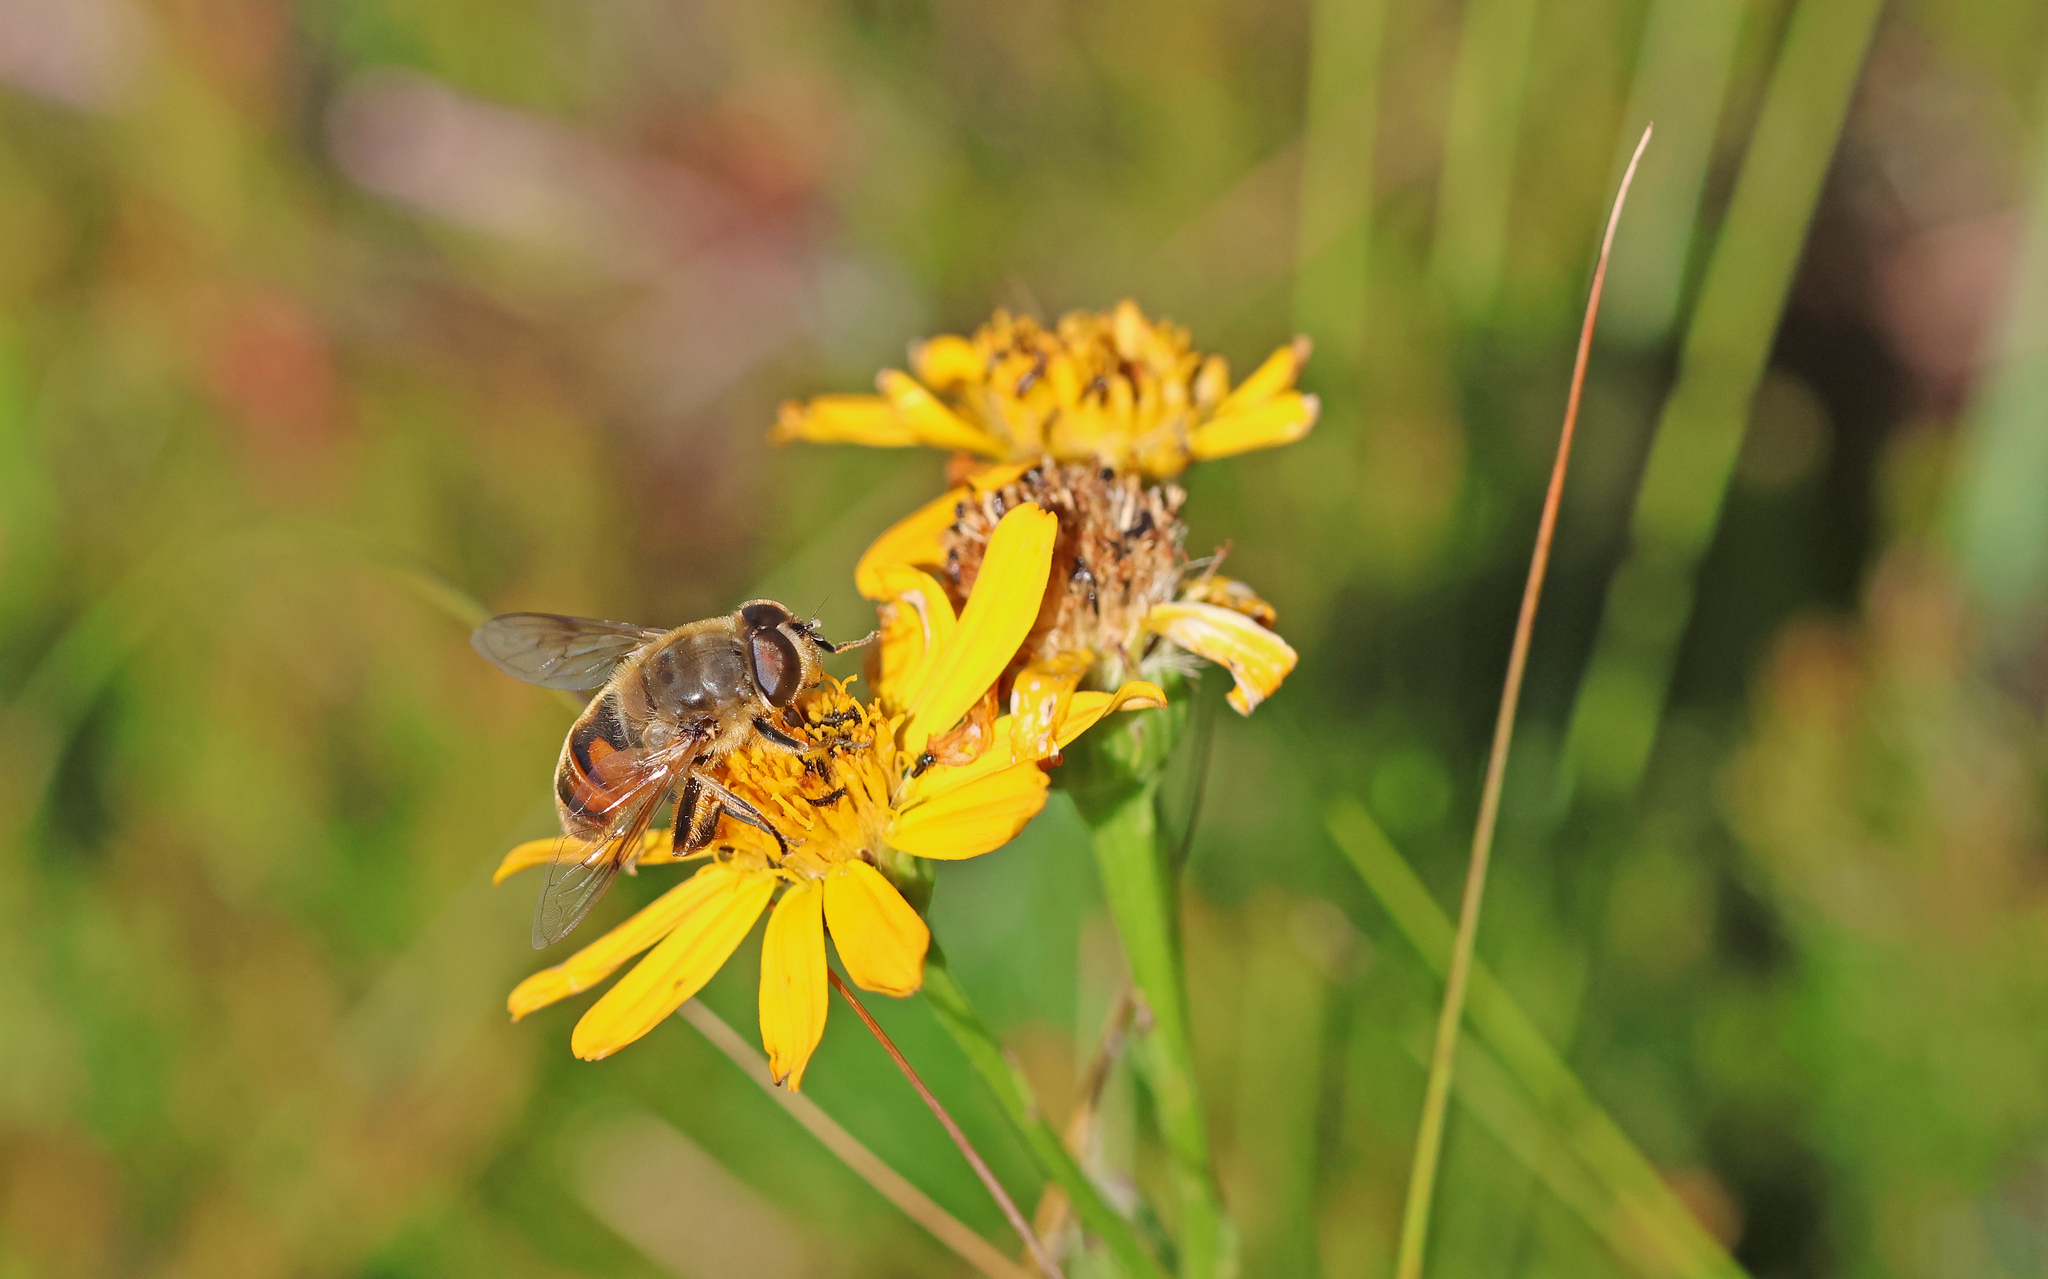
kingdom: Animalia
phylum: Arthropoda
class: Insecta
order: Diptera
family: Syrphidae
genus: Eristalis
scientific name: Eristalis tenax
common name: Drone fly
